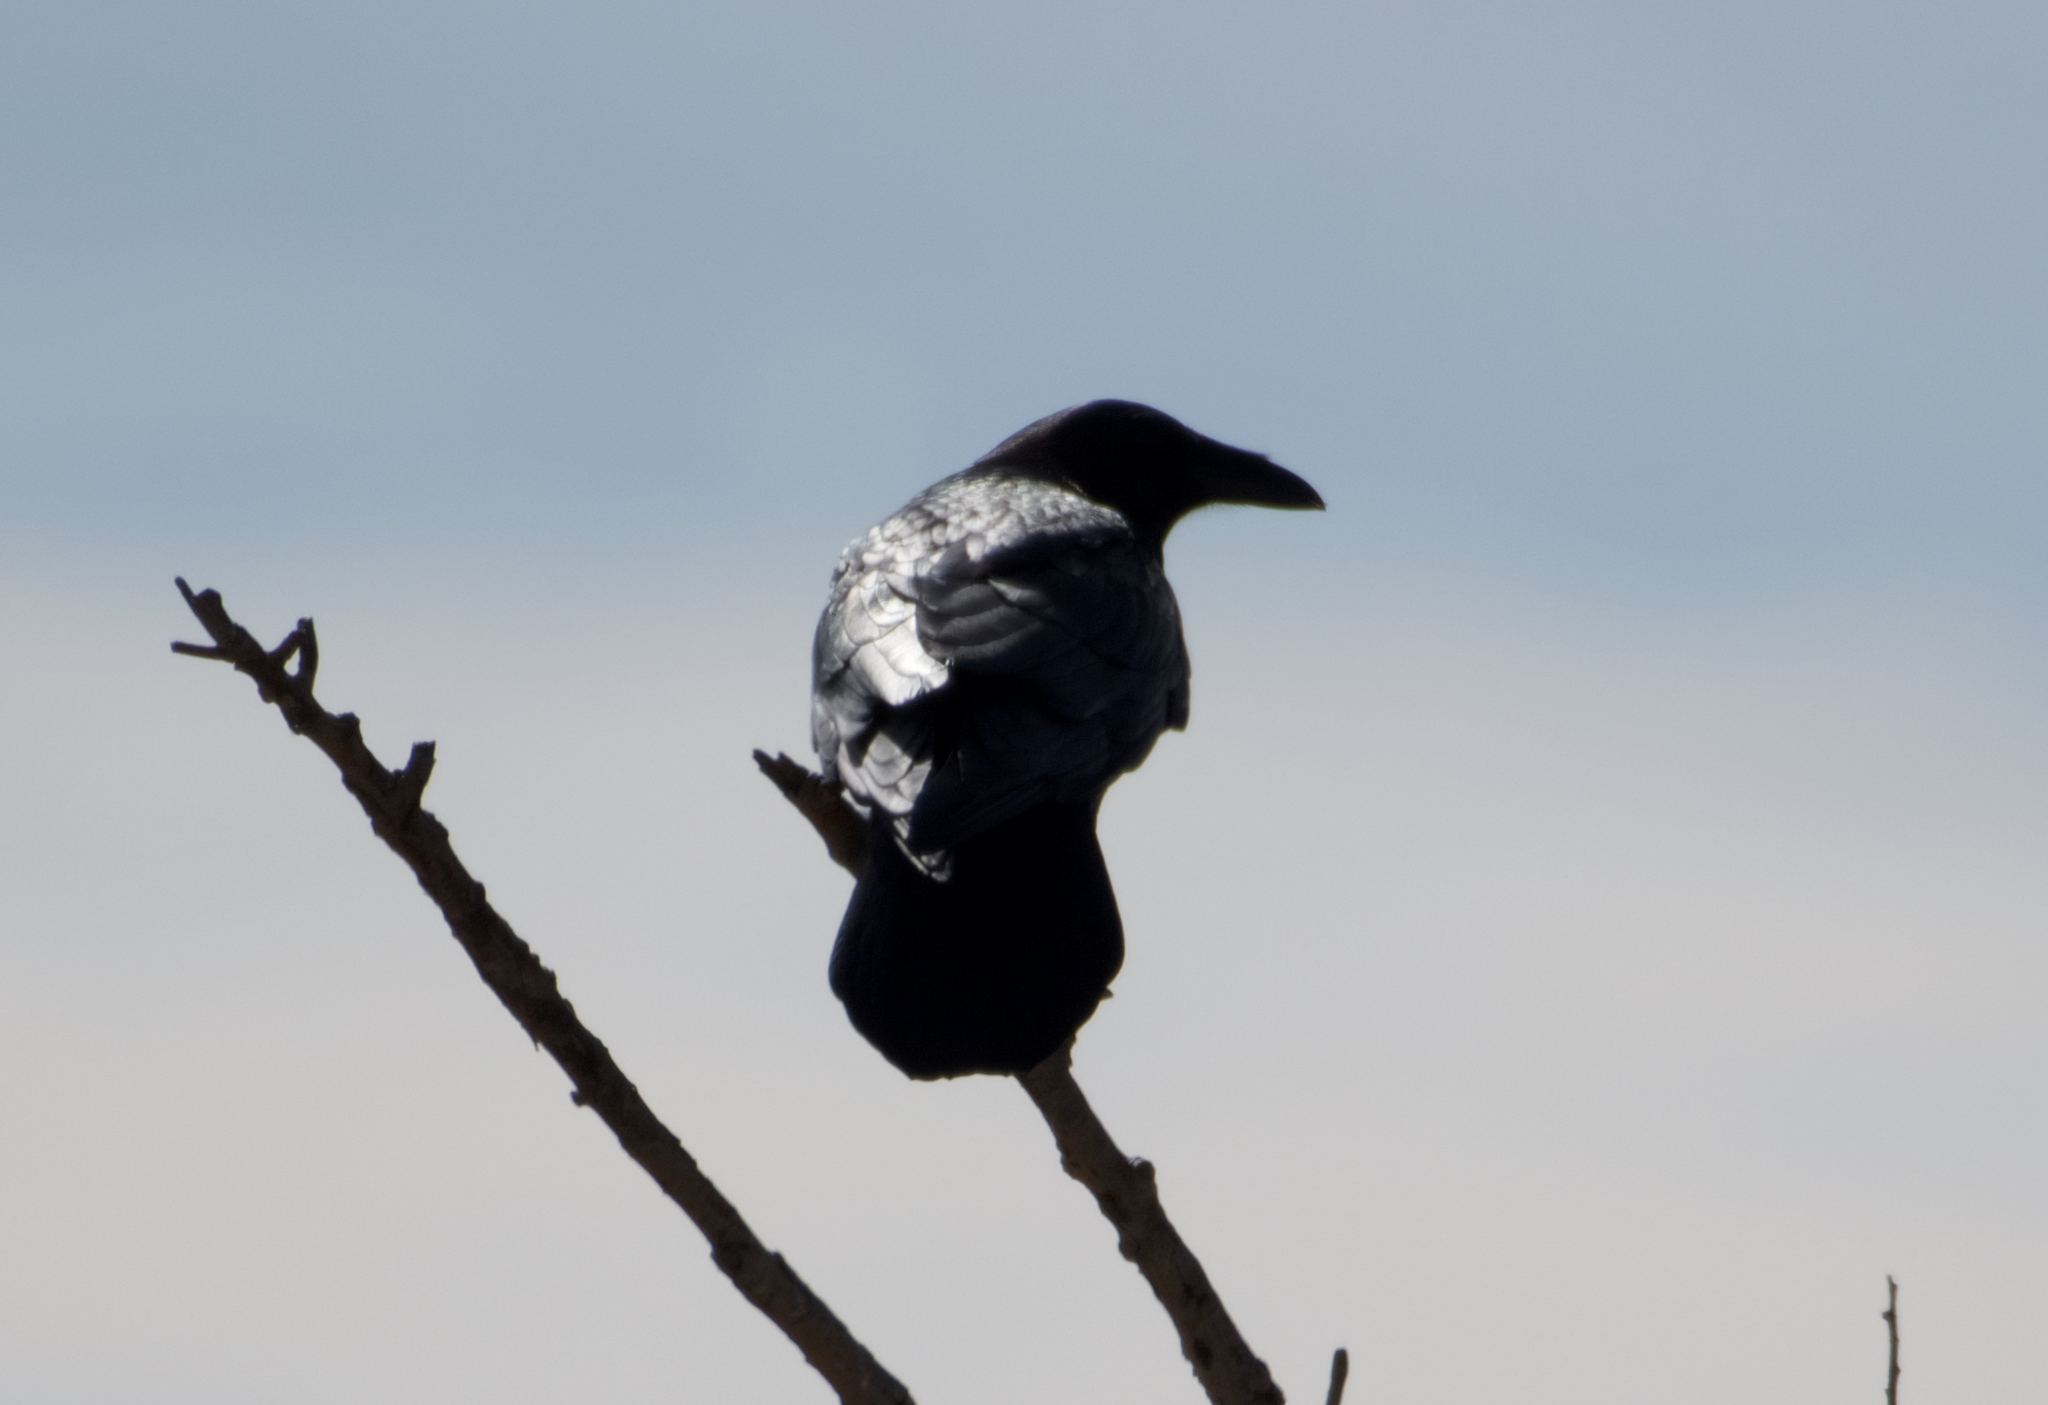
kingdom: Animalia
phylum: Chordata
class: Aves
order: Passeriformes
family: Corvidae
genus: Corvus
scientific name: Corvus corax
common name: Common raven
